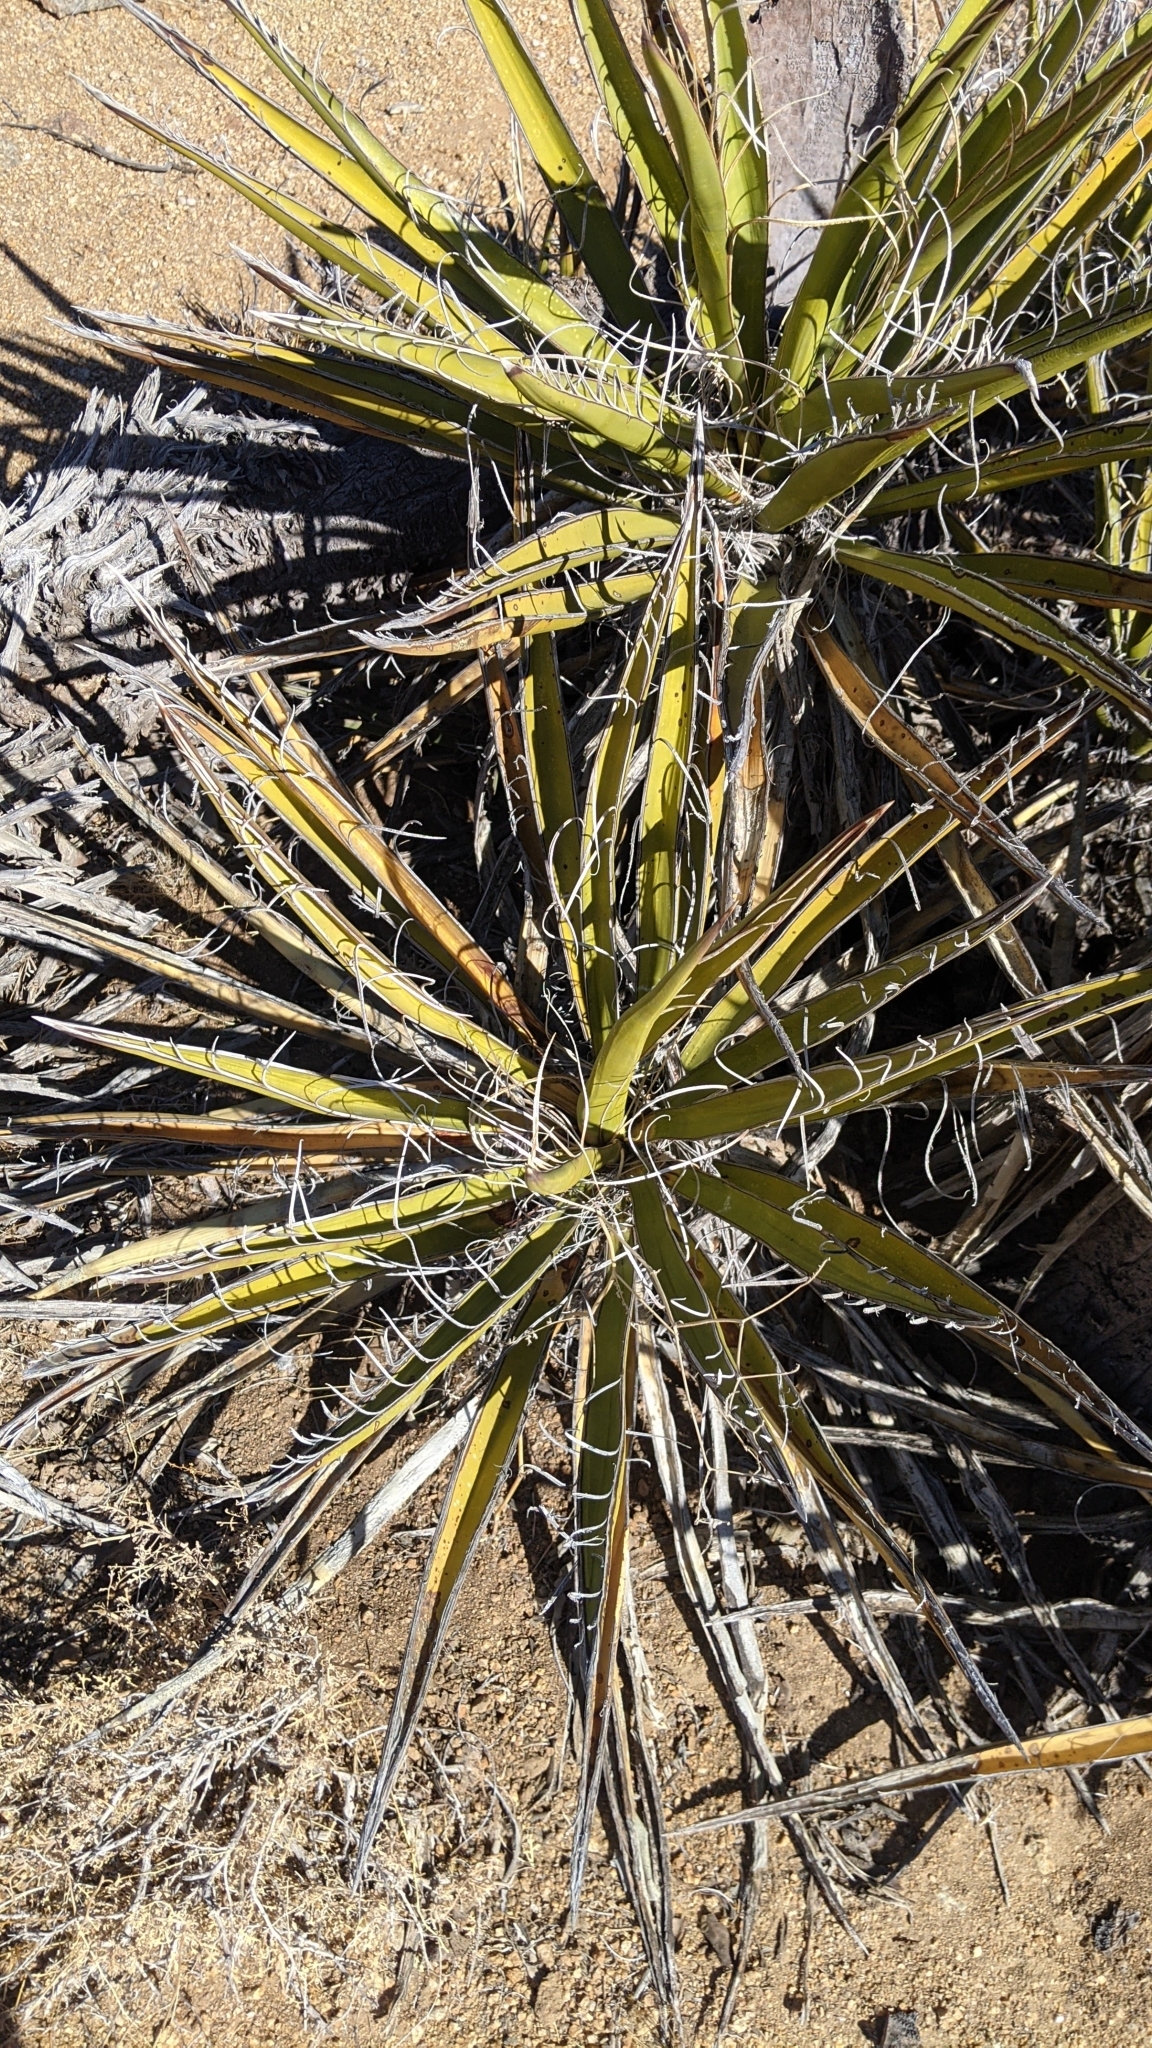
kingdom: Plantae
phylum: Tracheophyta
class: Liliopsida
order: Asparagales
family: Asparagaceae
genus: Yucca
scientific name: Yucca schidigera
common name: Mojave yucca
